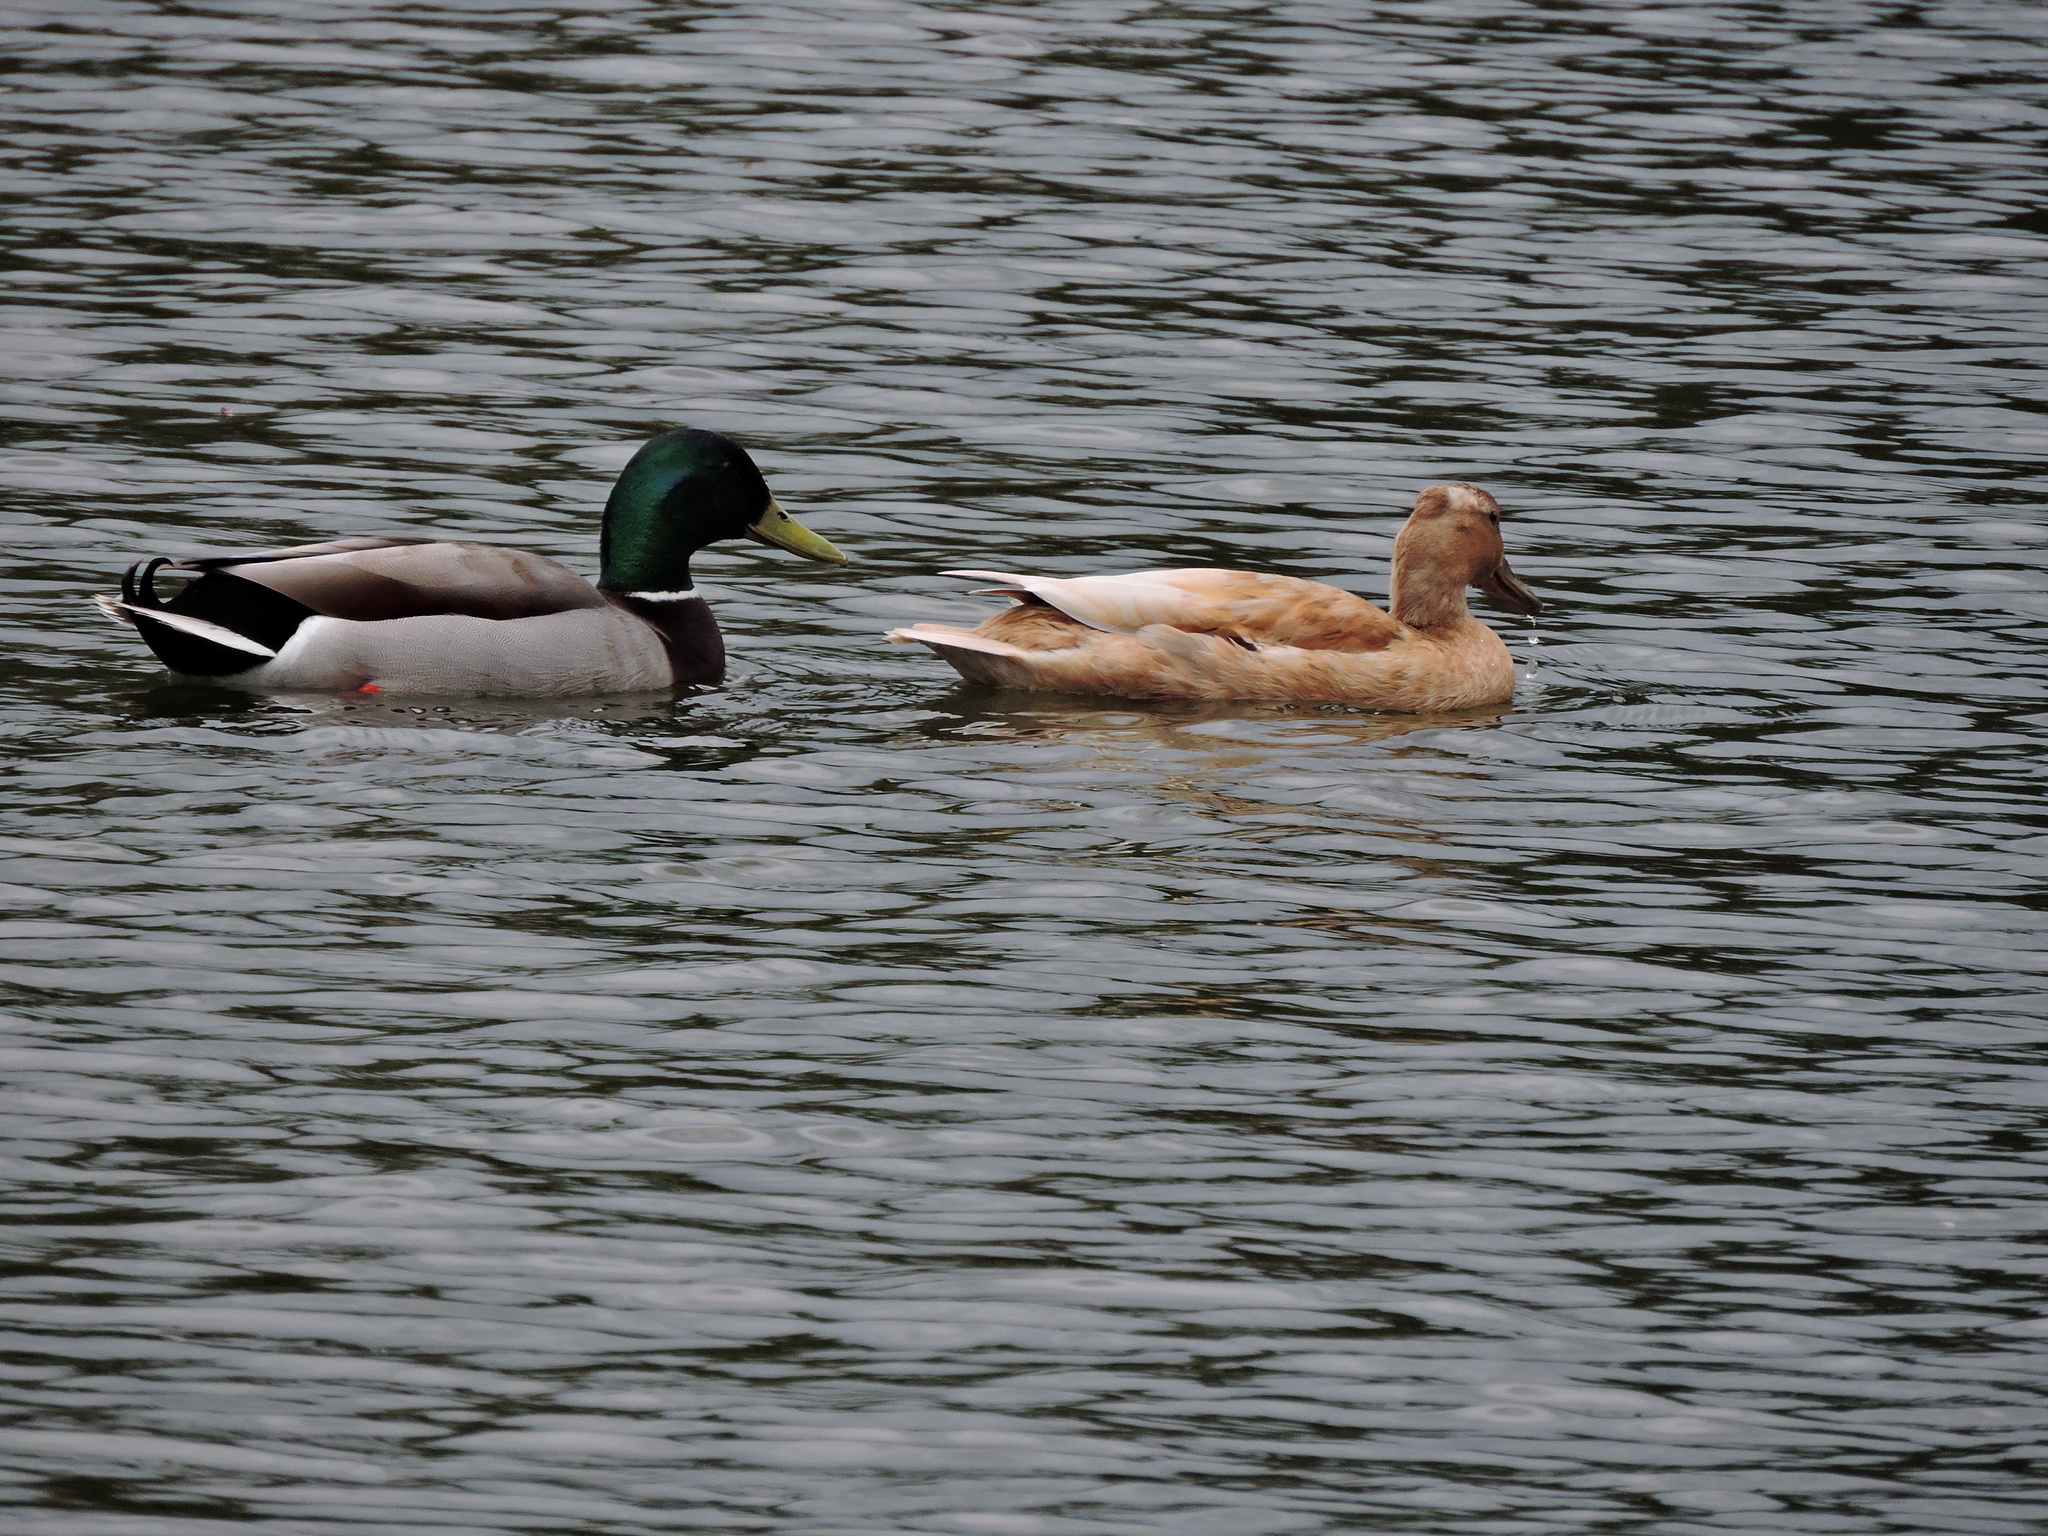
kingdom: Animalia
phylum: Chordata
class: Aves
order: Anseriformes
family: Anatidae
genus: Anas
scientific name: Anas platyrhynchos
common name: Mallard
